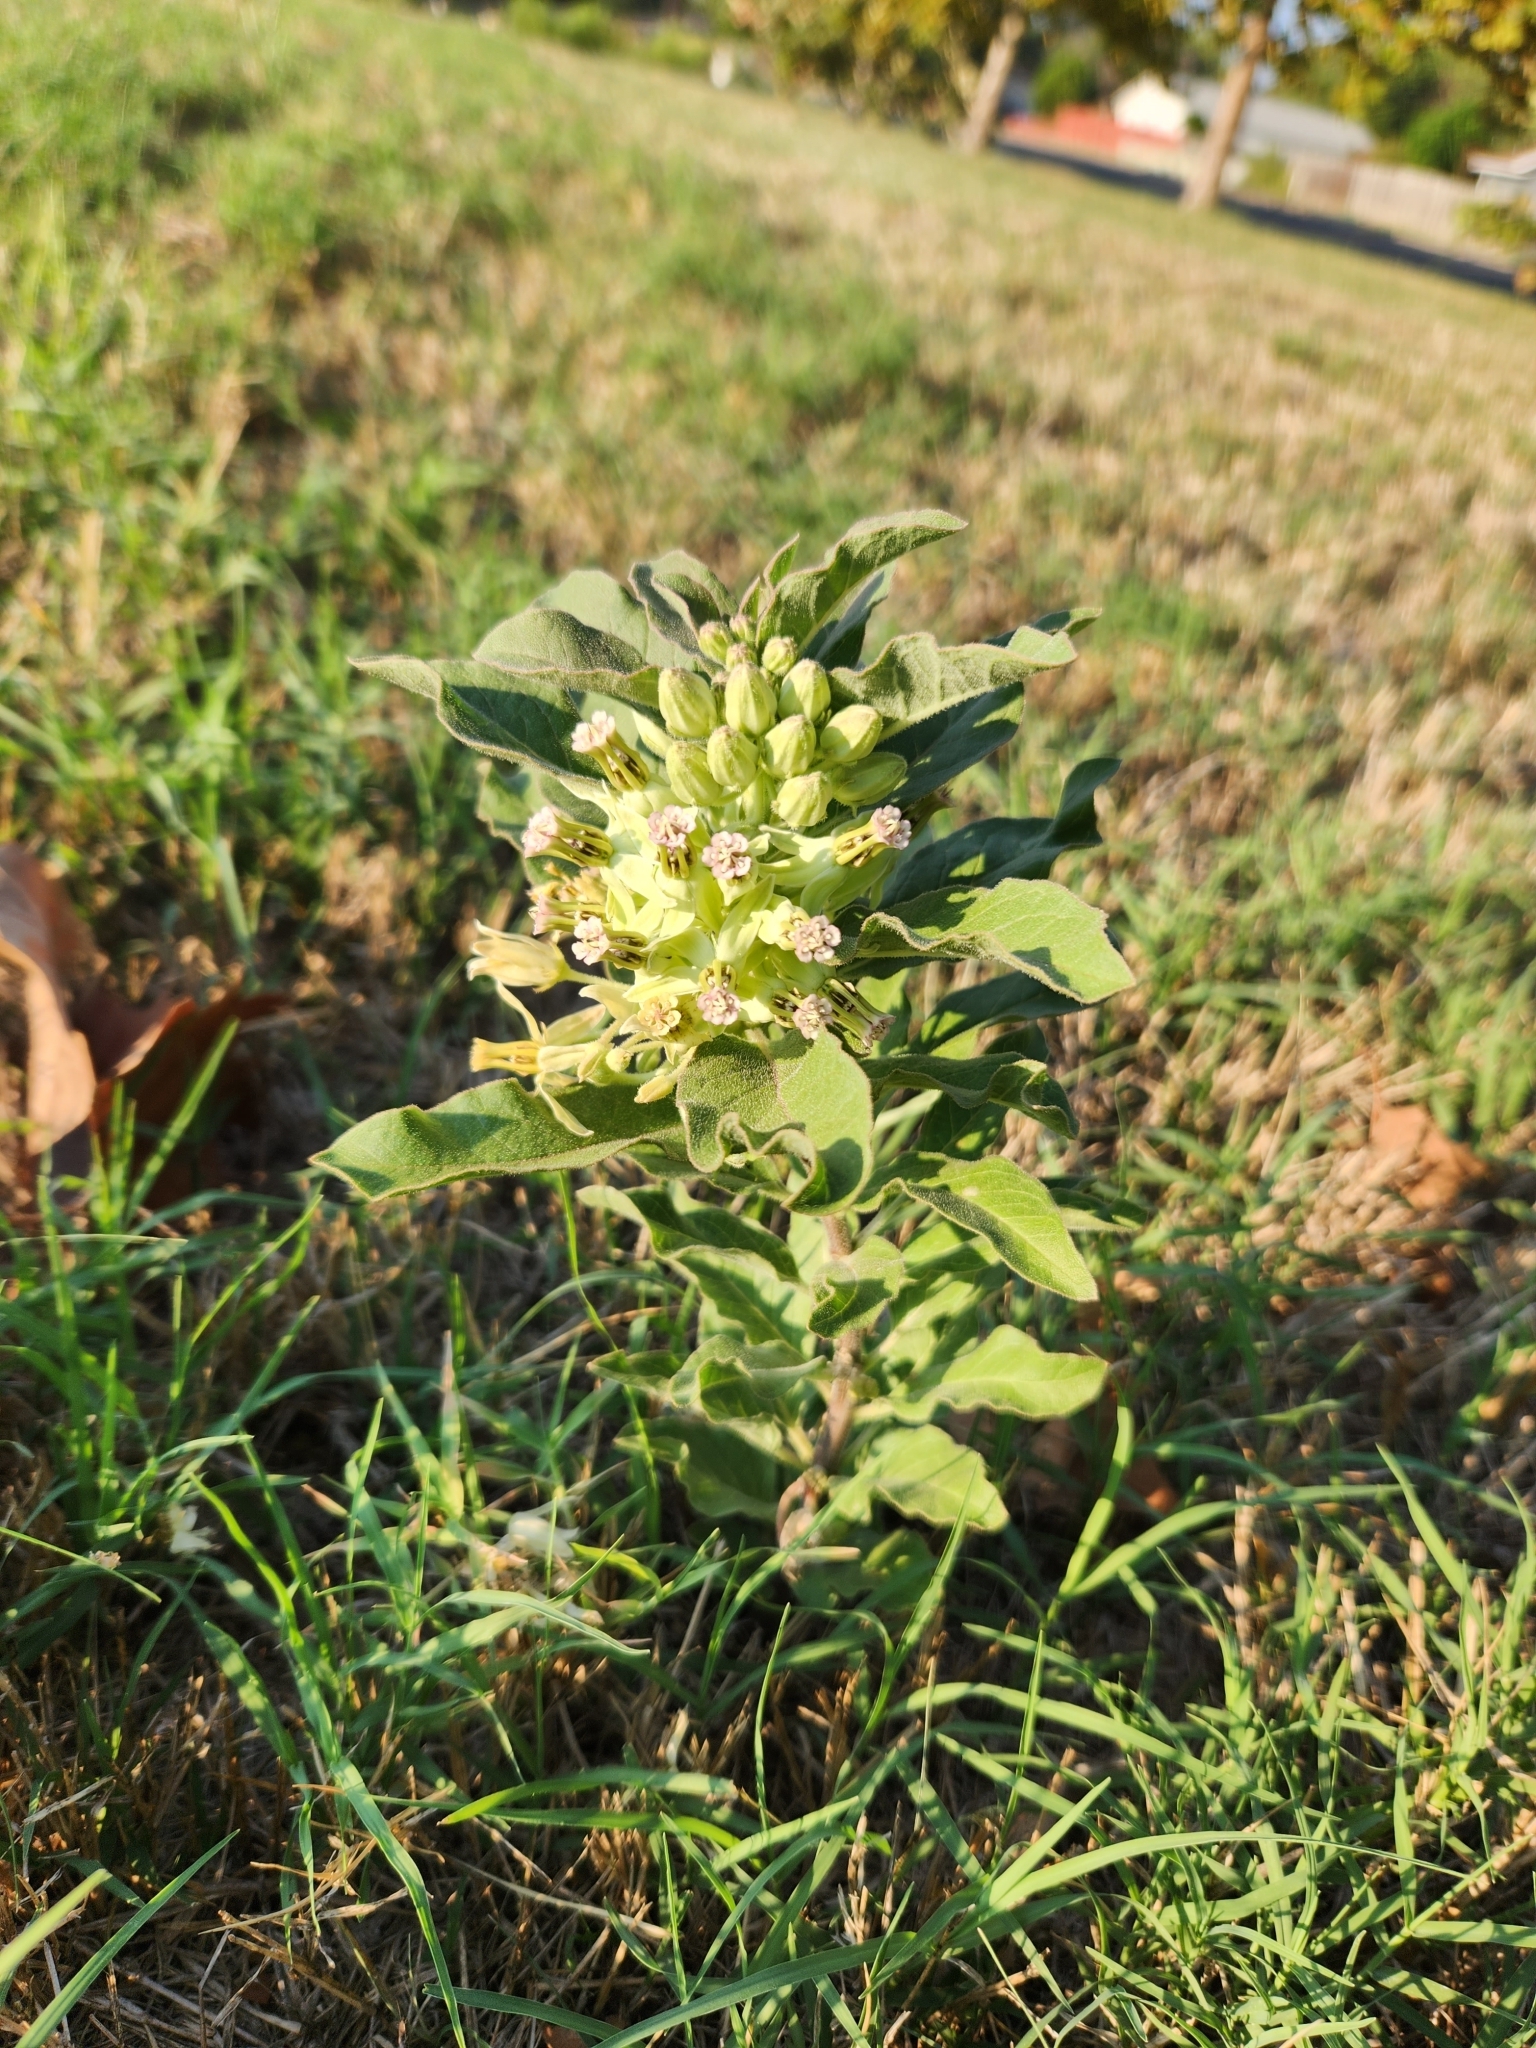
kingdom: Plantae
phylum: Tracheophyta
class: Magnoliopsida
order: Gentianales
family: Apocynaceae
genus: Asclepias
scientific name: Asclepias oenotheroides
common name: Zizotes milkweed
